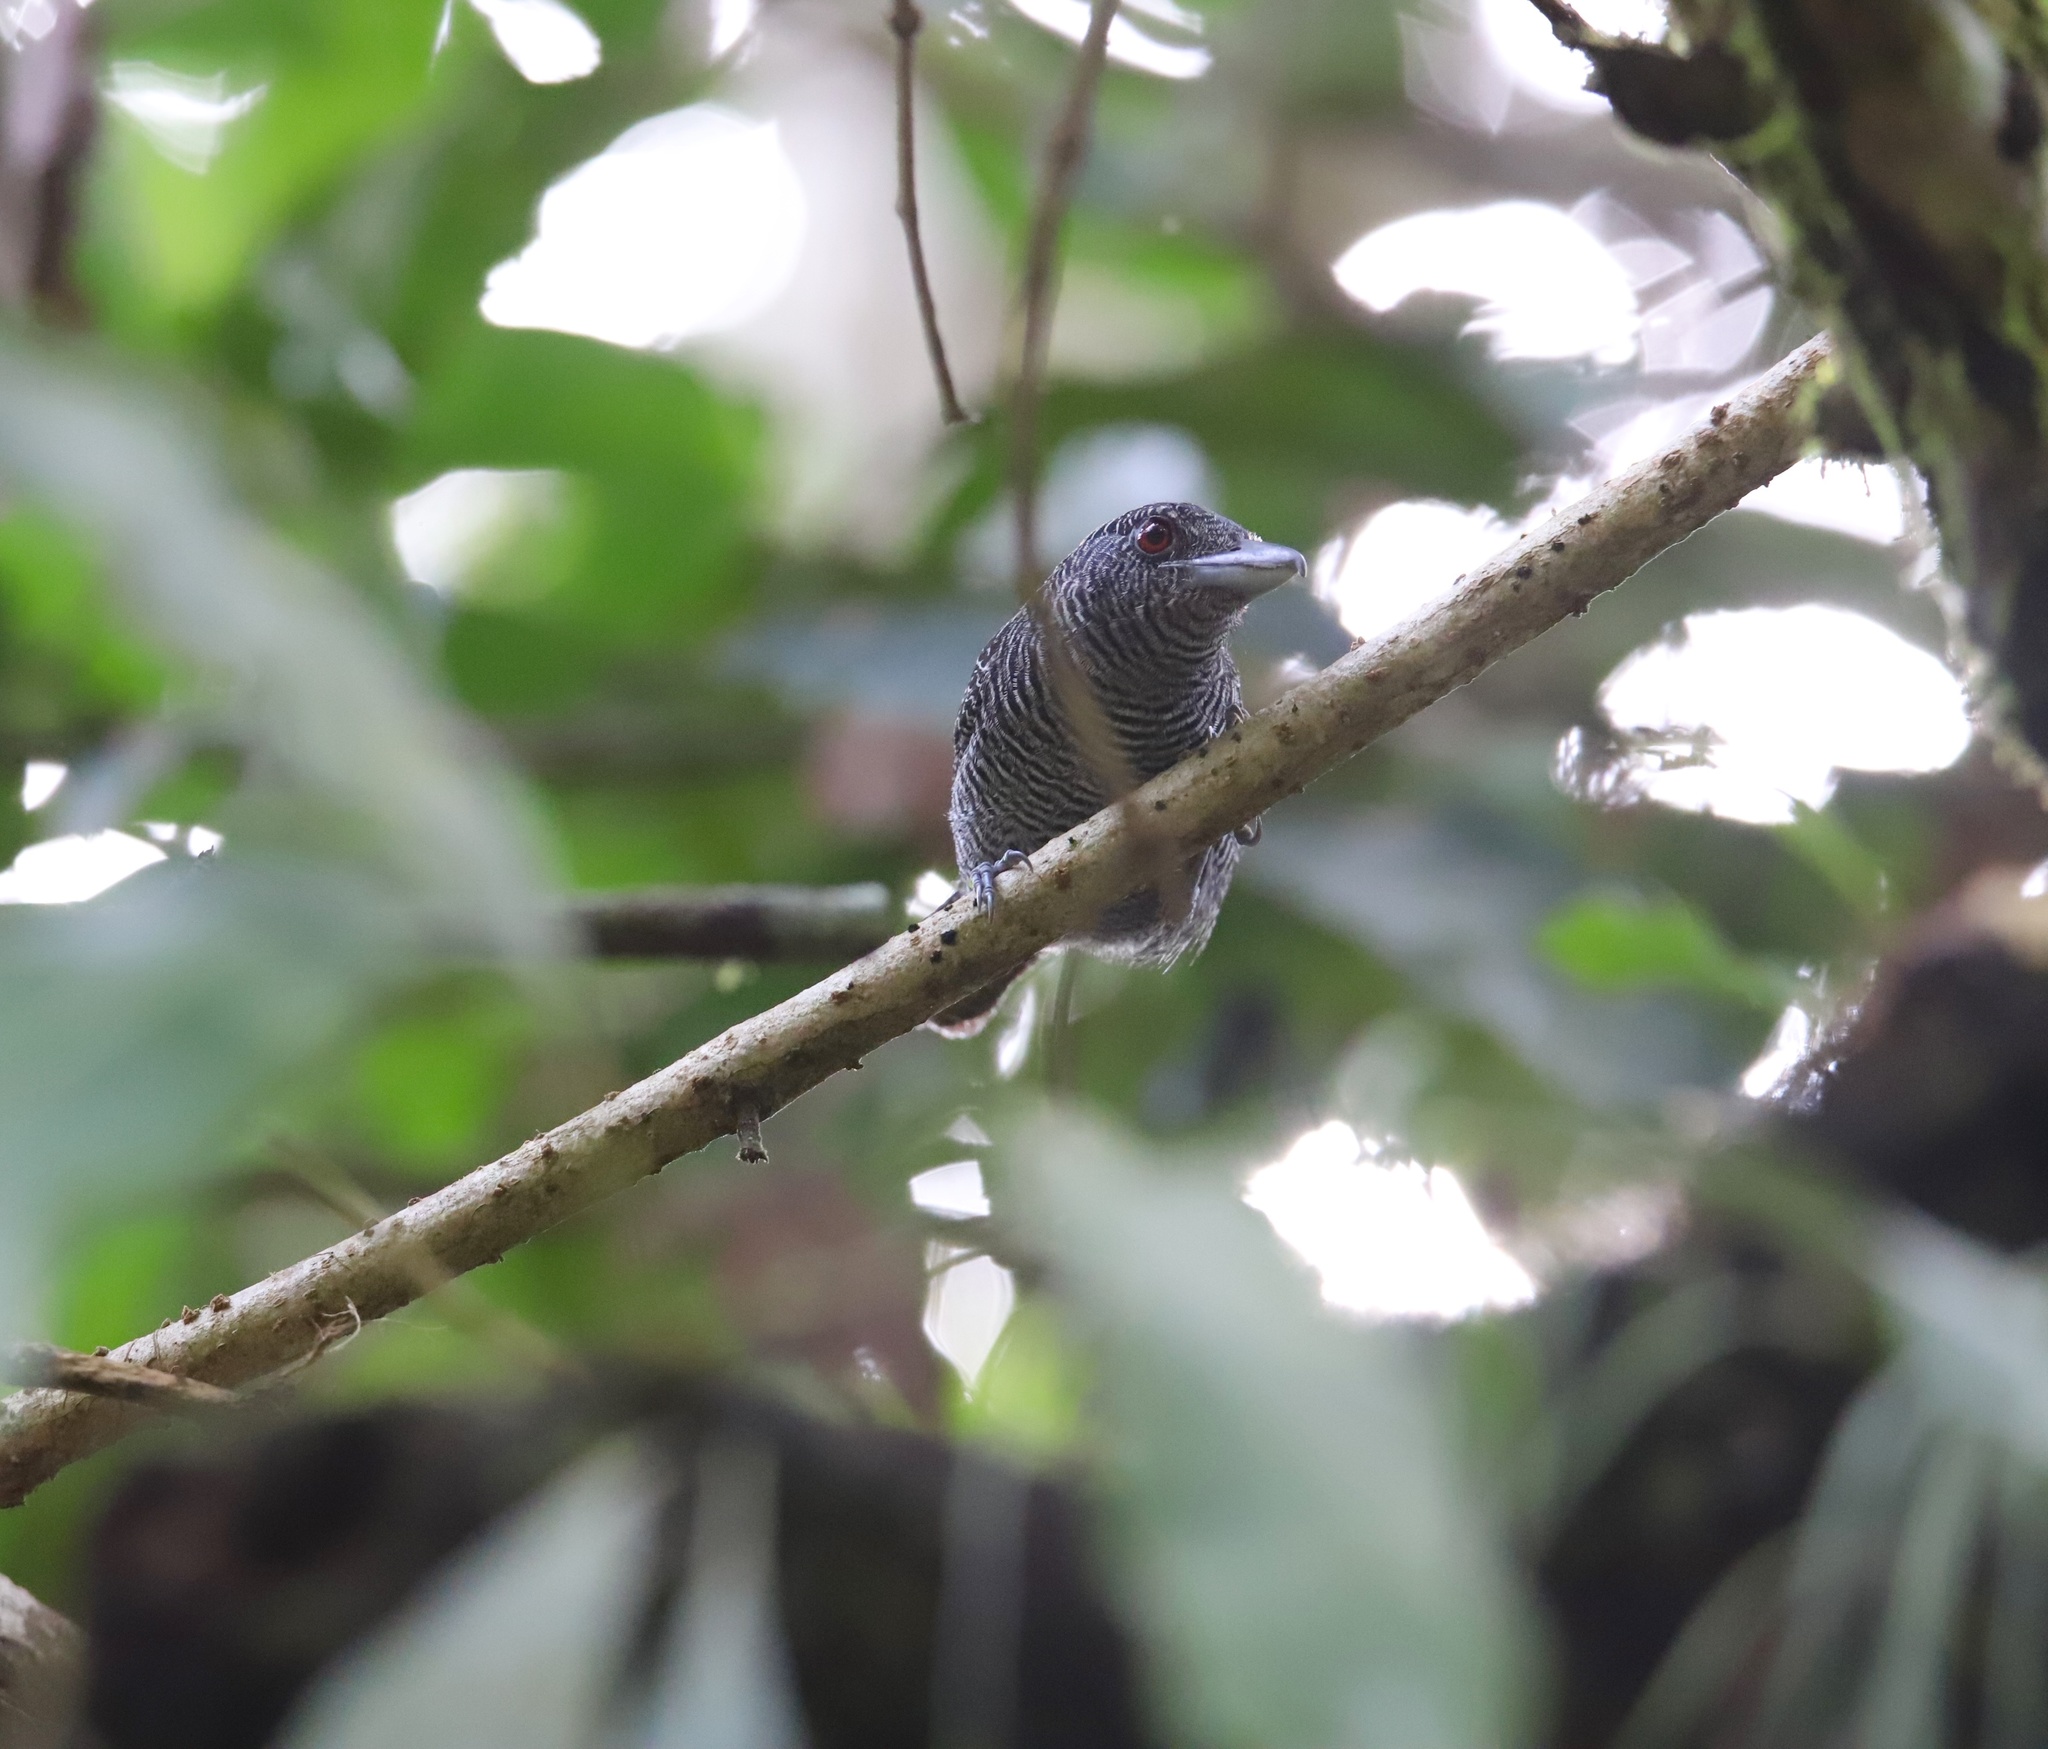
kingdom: Animalia
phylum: Chordata
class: Aves
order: Passeriformes
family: Thamnophilidae
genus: Cymbilaimus
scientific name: Cymbilaimus lineatus
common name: Fasciated antshrike
